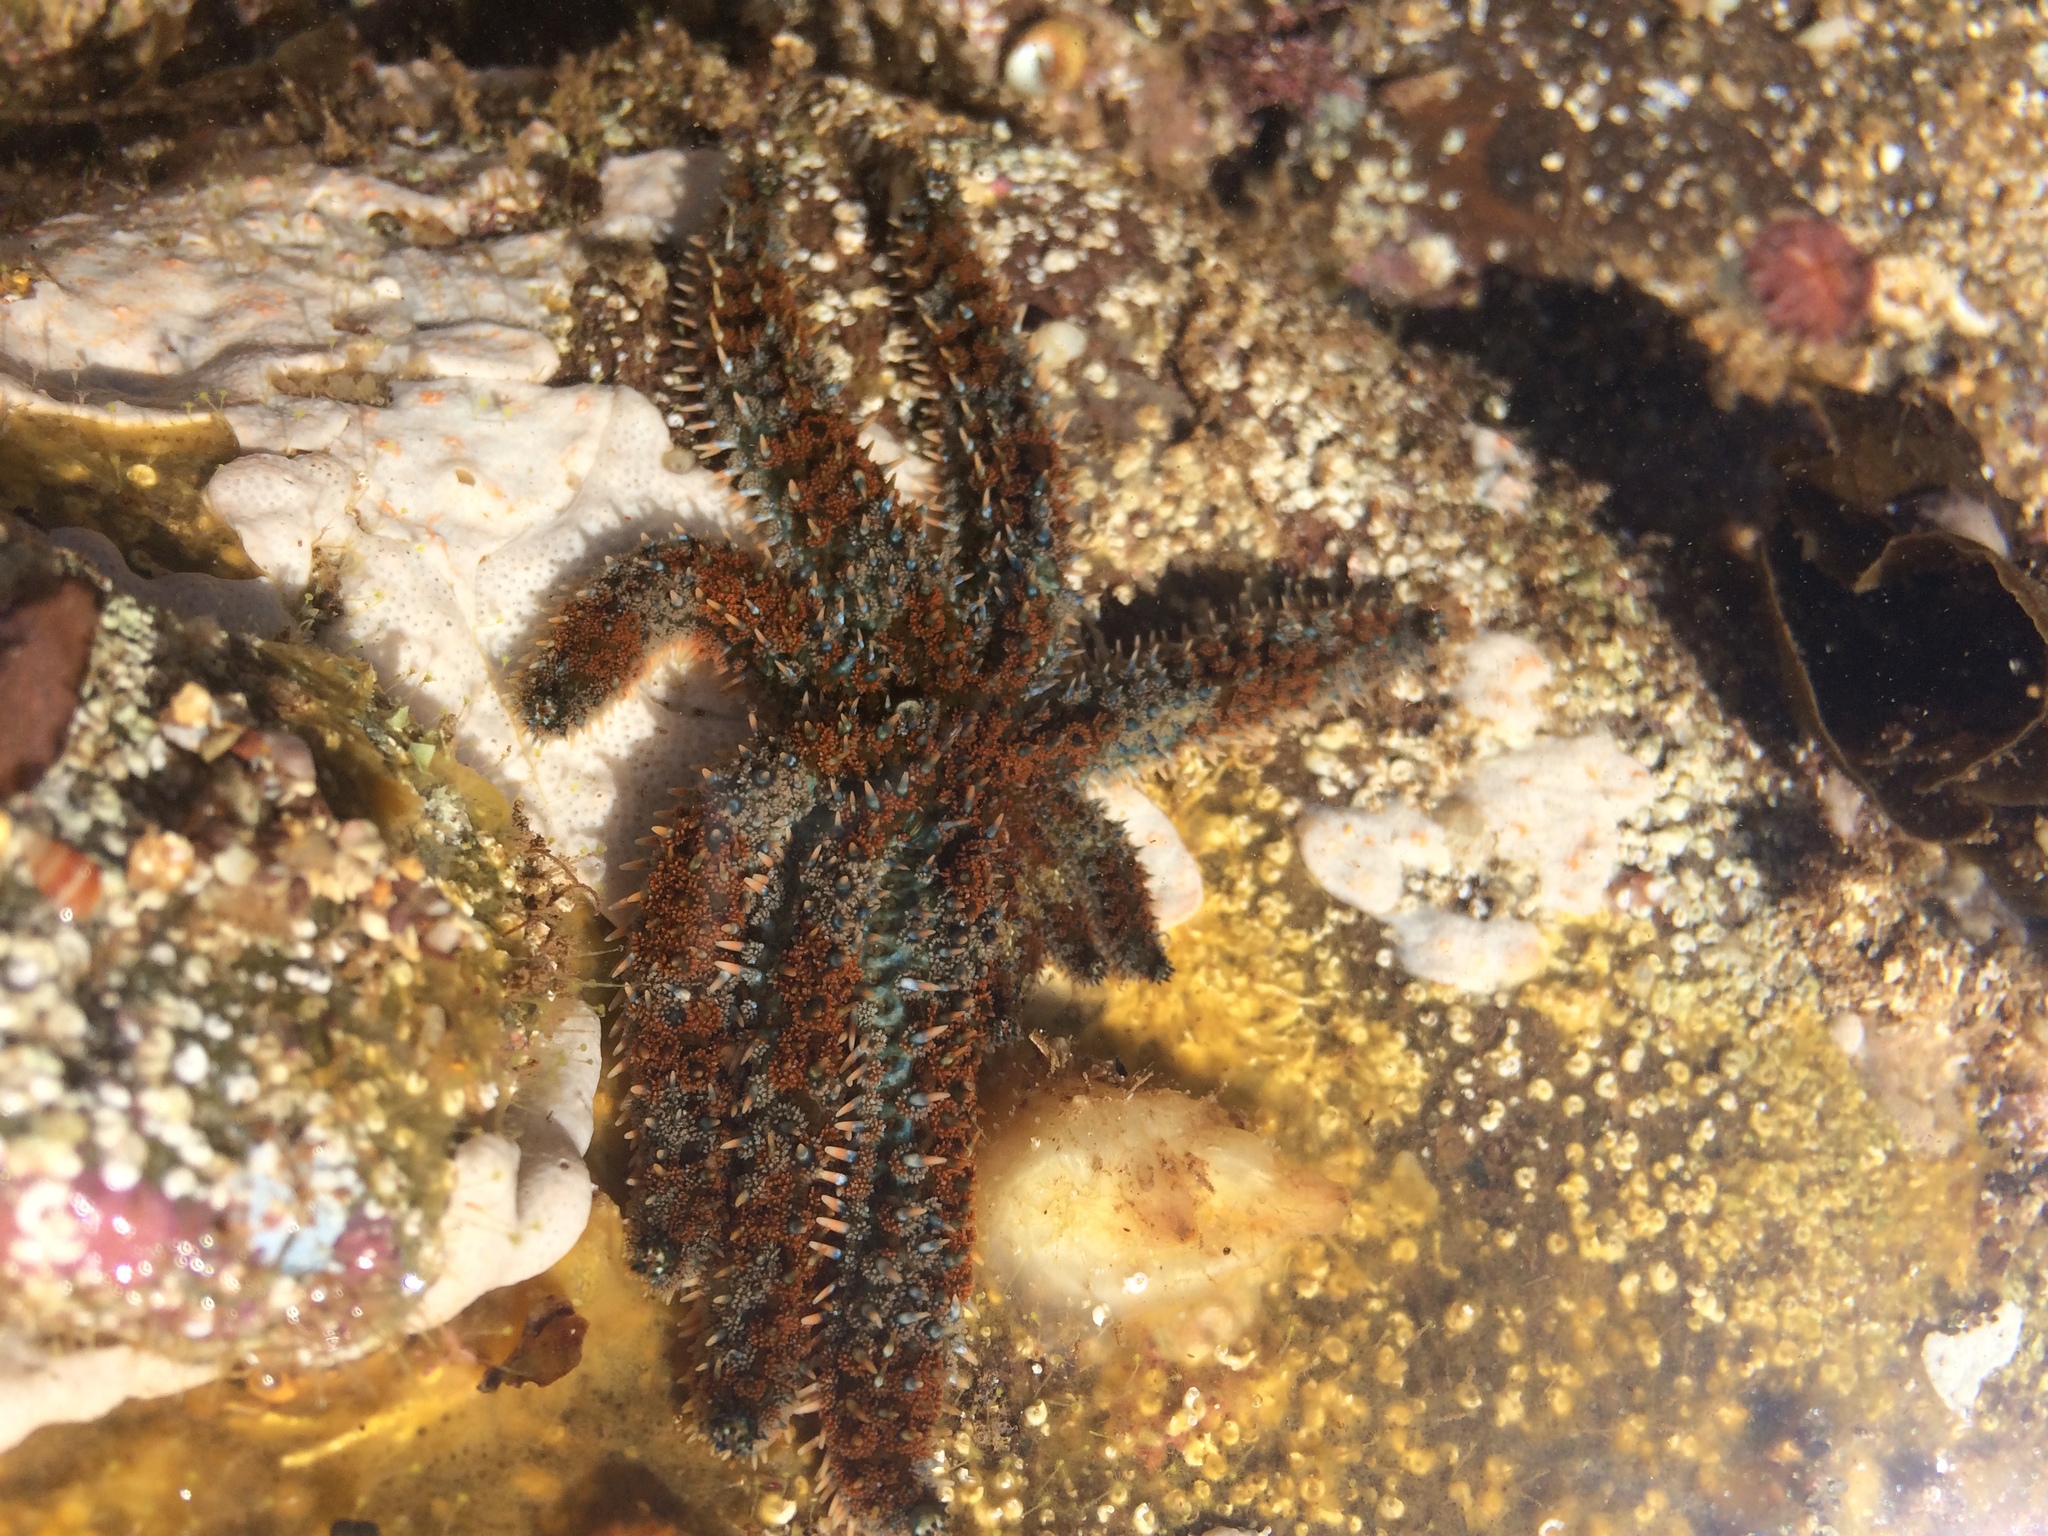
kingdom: Animalia
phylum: Echinodermata
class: Asteroidea
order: Forcipulatida
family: Asteriidae
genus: Coscinasterias
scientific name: Coscinasterias muricata
